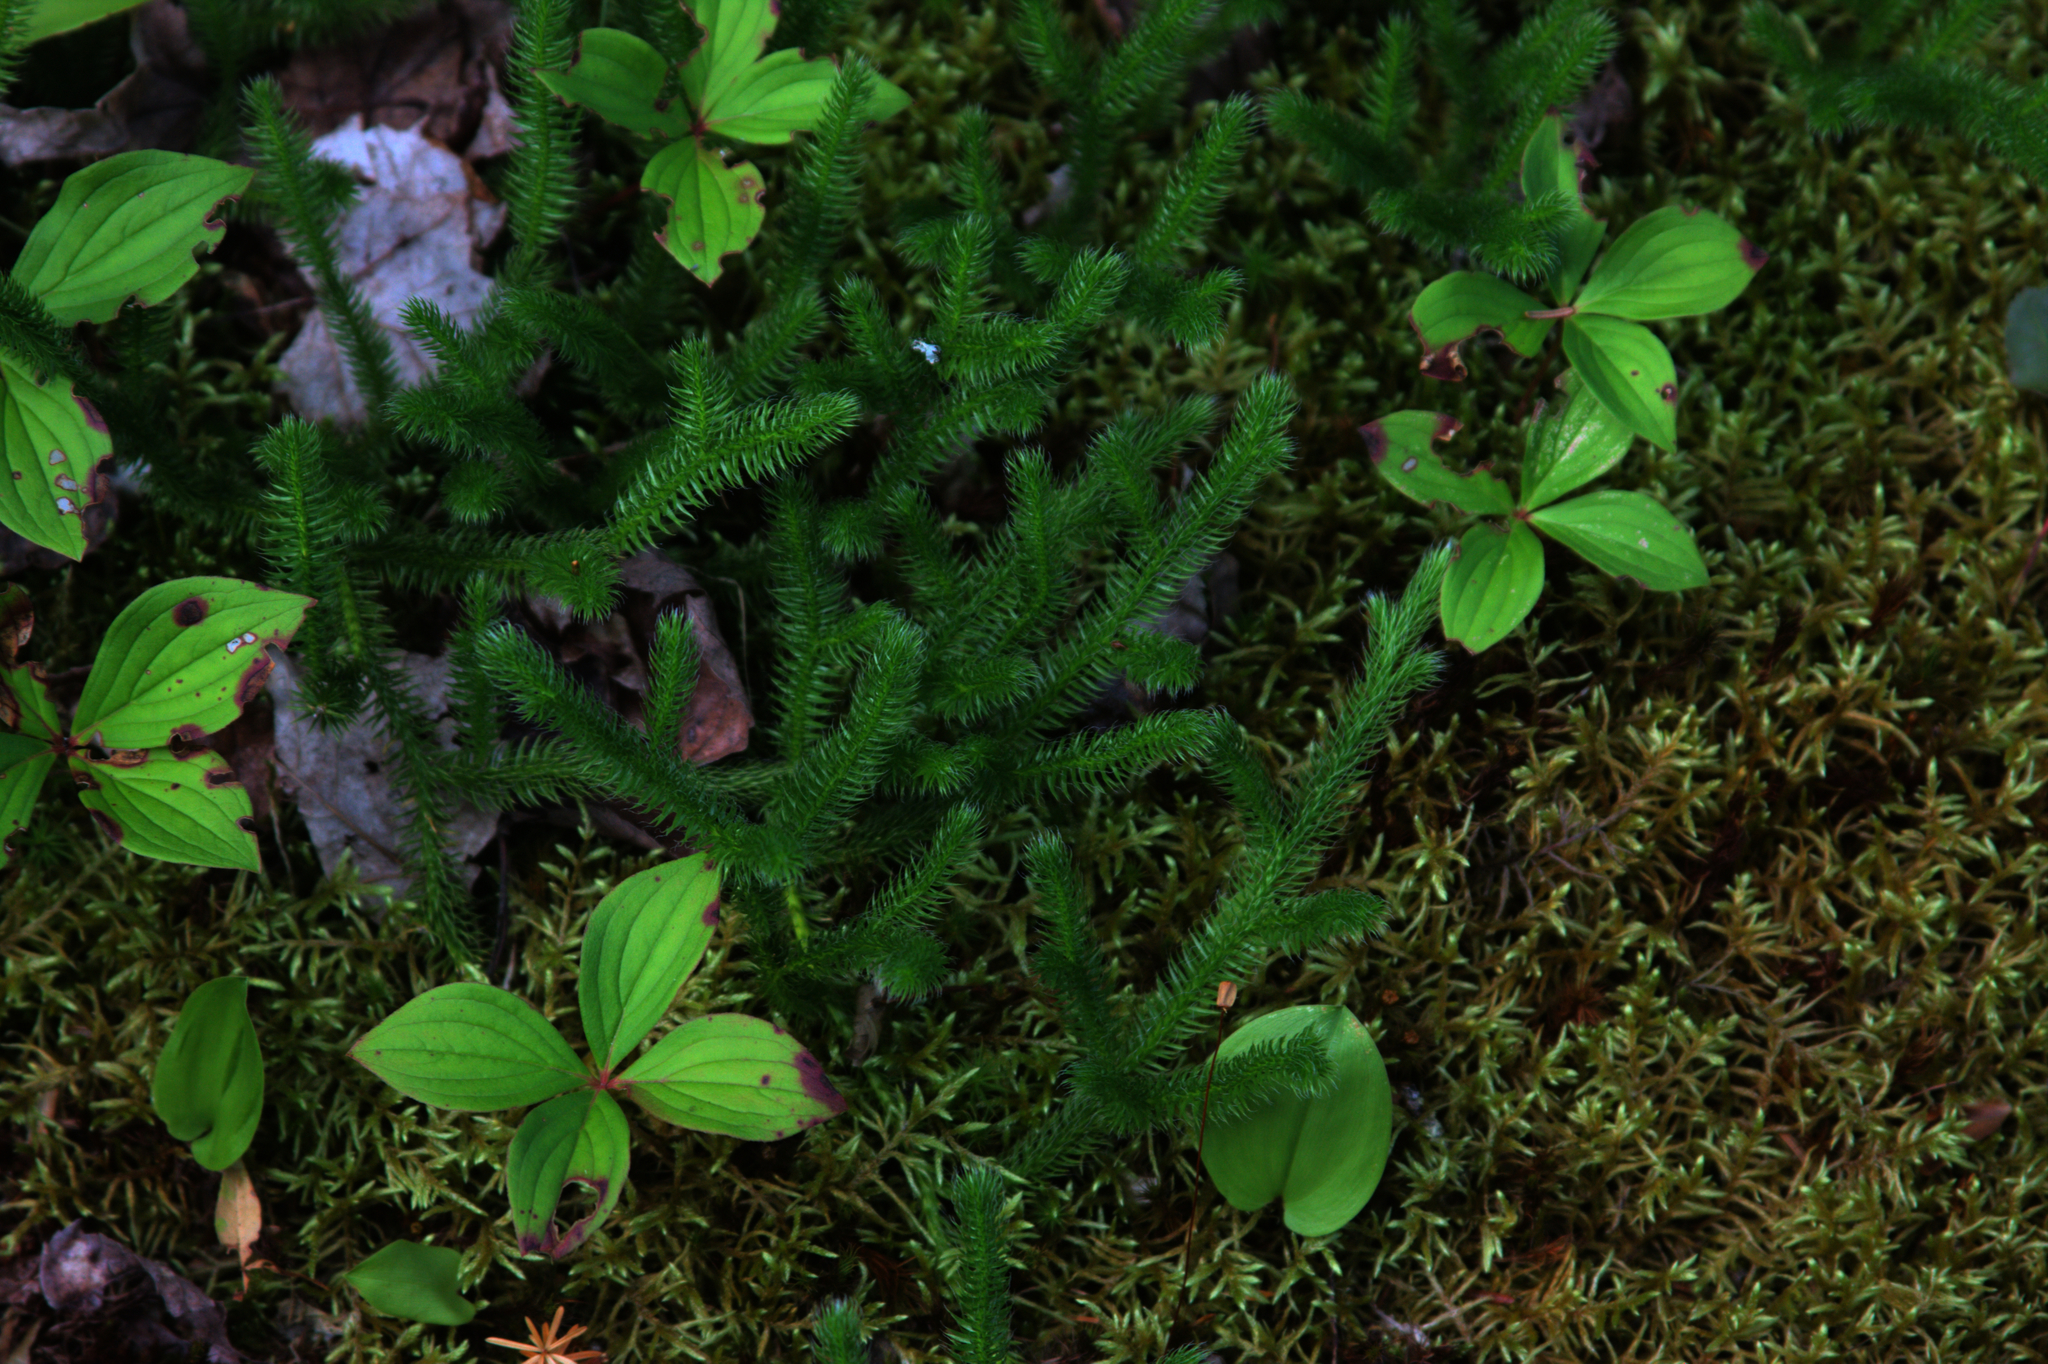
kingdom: Plantae
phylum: Tracheophyta
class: Magnoliopsida
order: Cornales
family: Cornaceae
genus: Cornus
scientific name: Cornus canadensis
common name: Creeping dogwood
